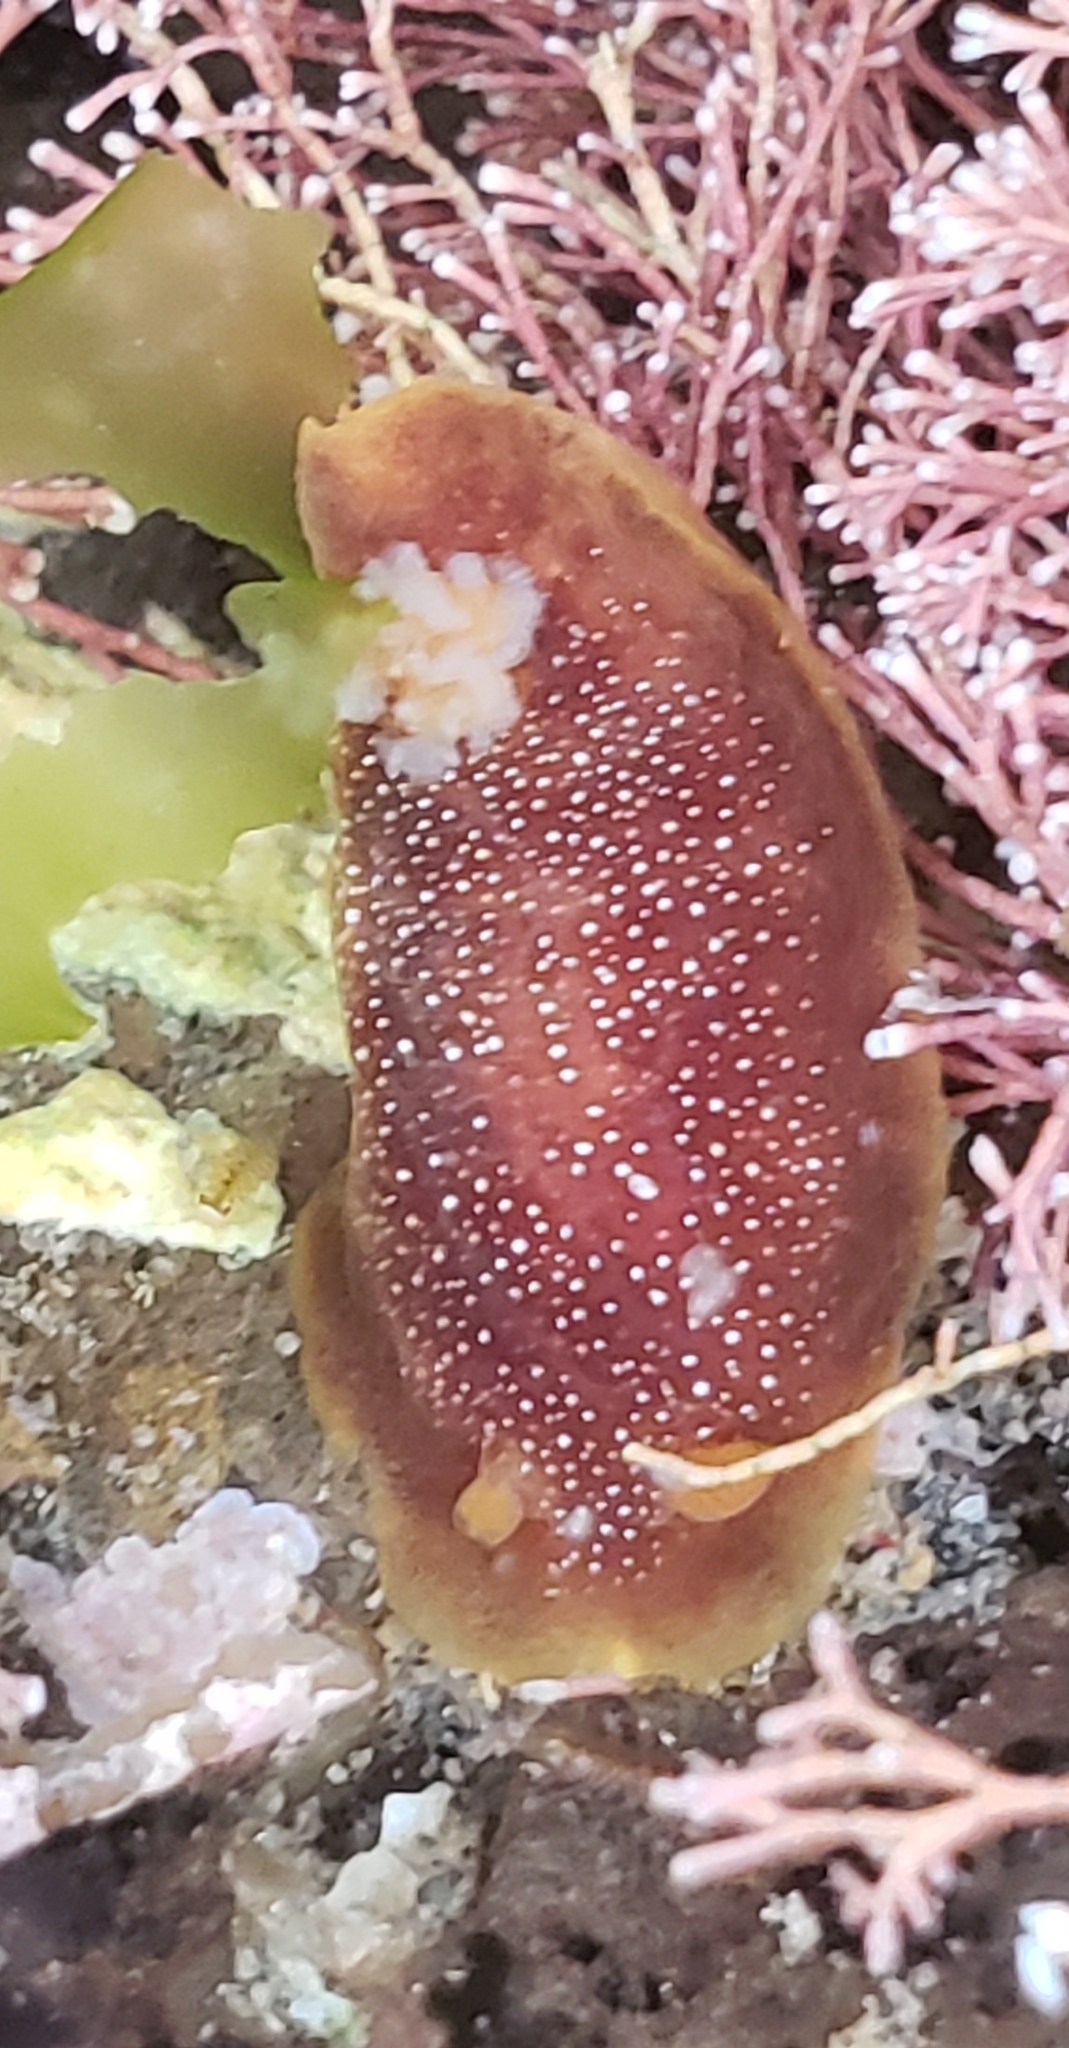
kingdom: Animalia
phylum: Mollusca
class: Gastropoda
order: Nudibranchia
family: Dendrodorididae
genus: Doriopsilla
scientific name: Doriopsilla albopunctata
